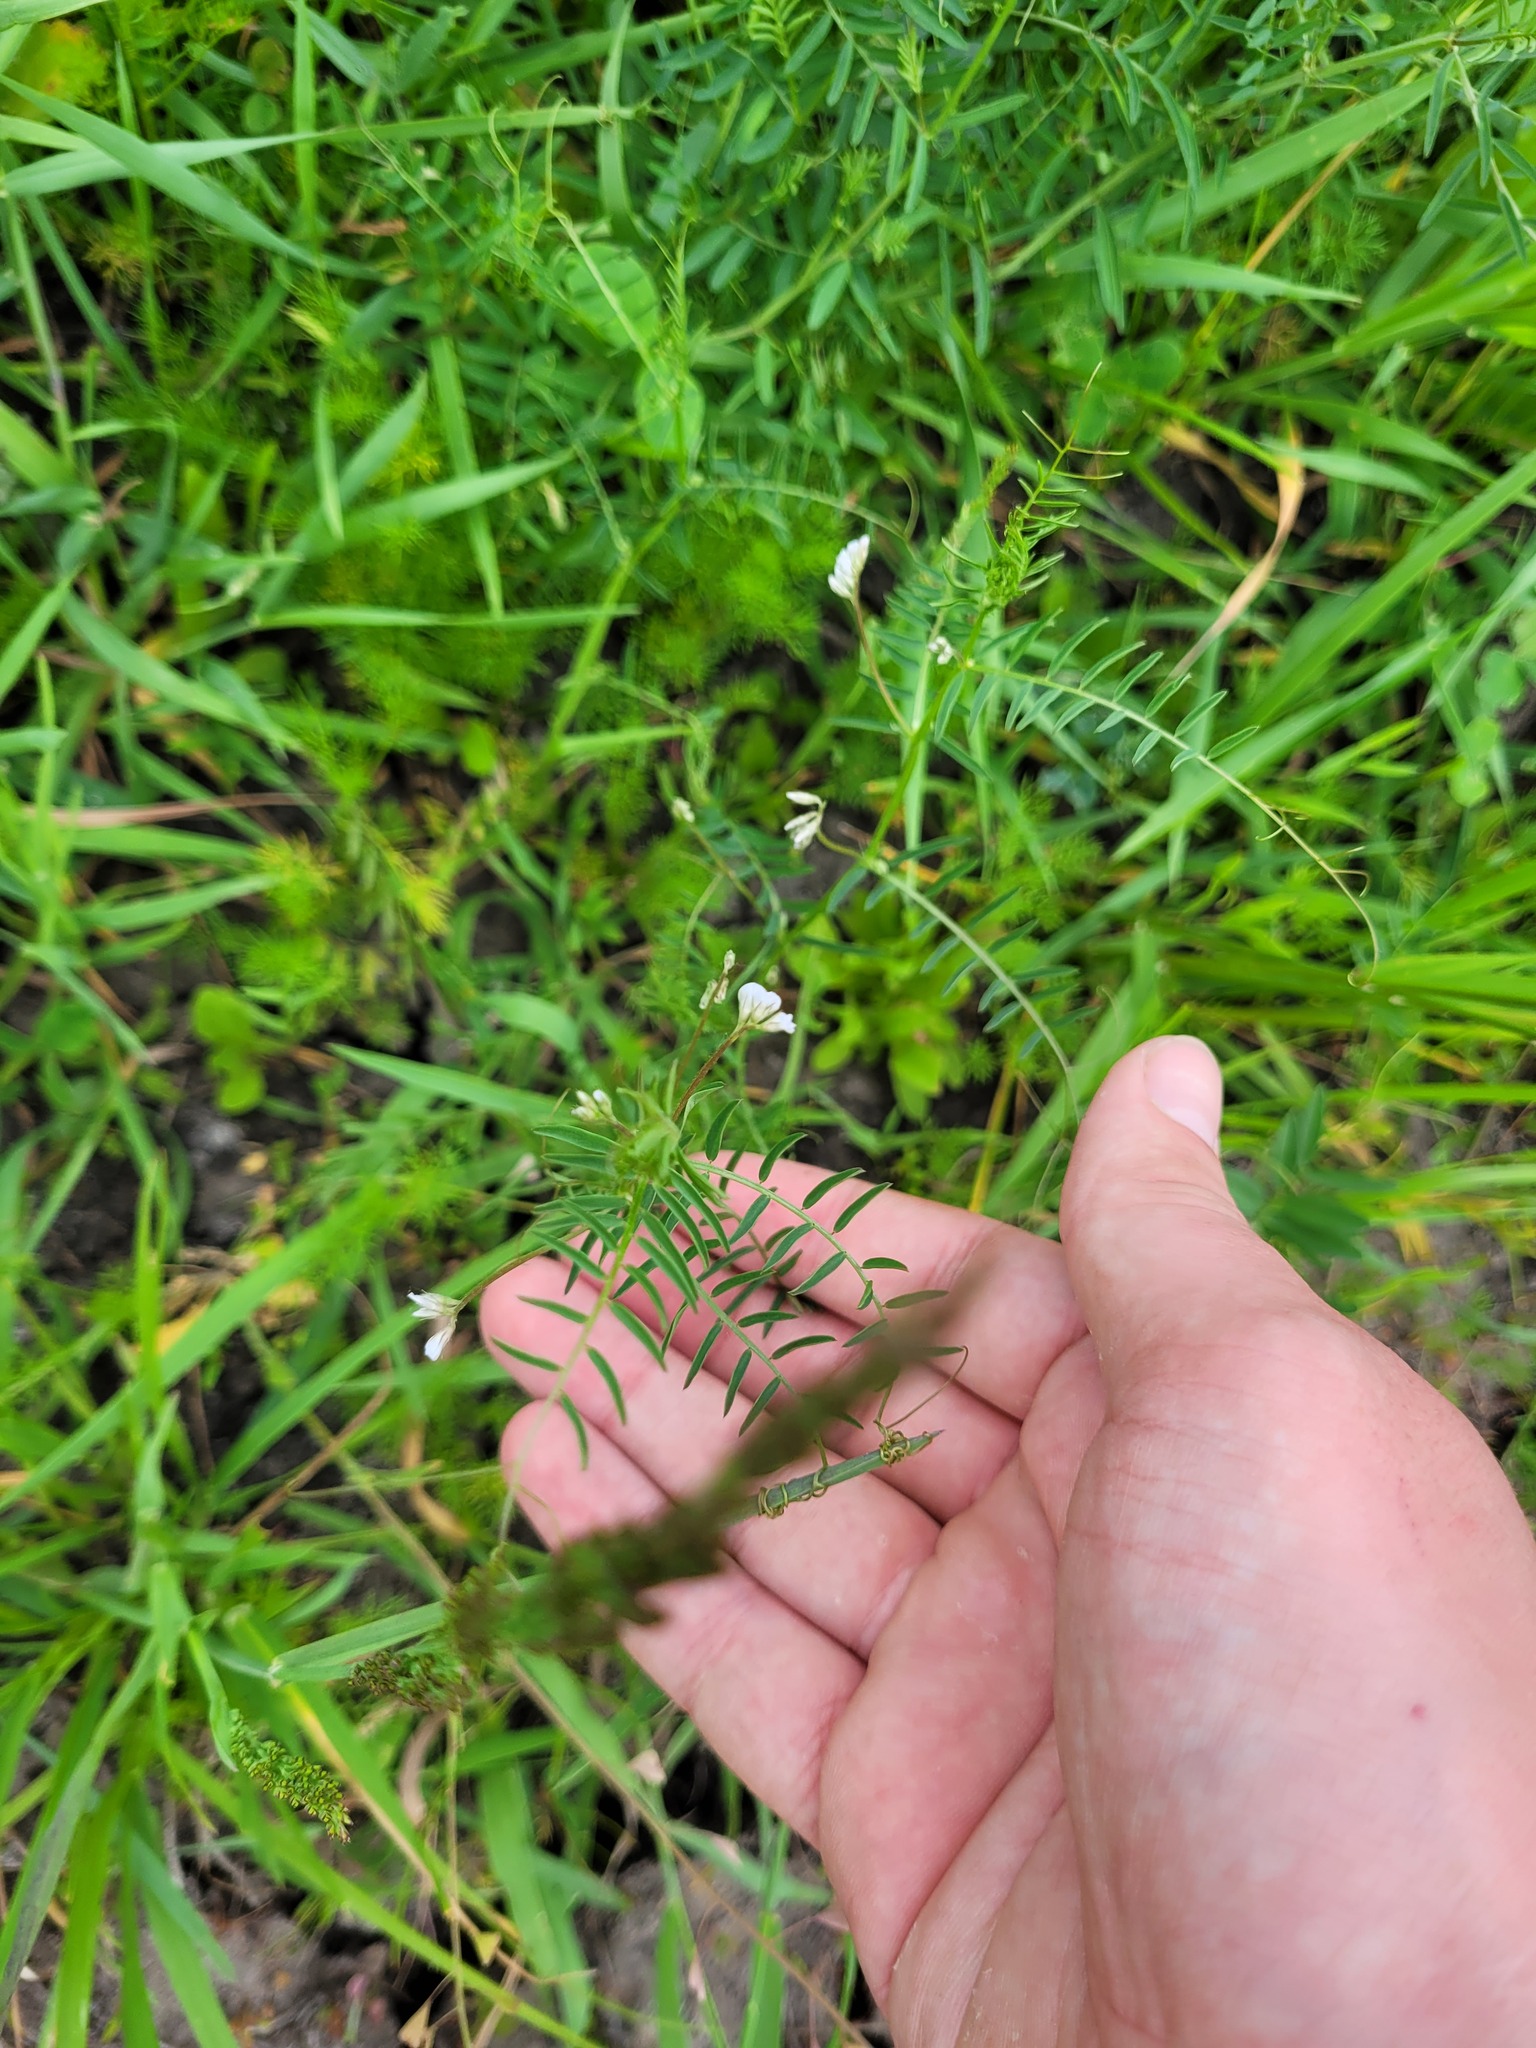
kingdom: Plantae
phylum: Tracheophyta
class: Magnoliopsida
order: Fabales
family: Fabaceae
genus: Vicia
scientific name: Vicia hirsuta
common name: Tiny vetch
